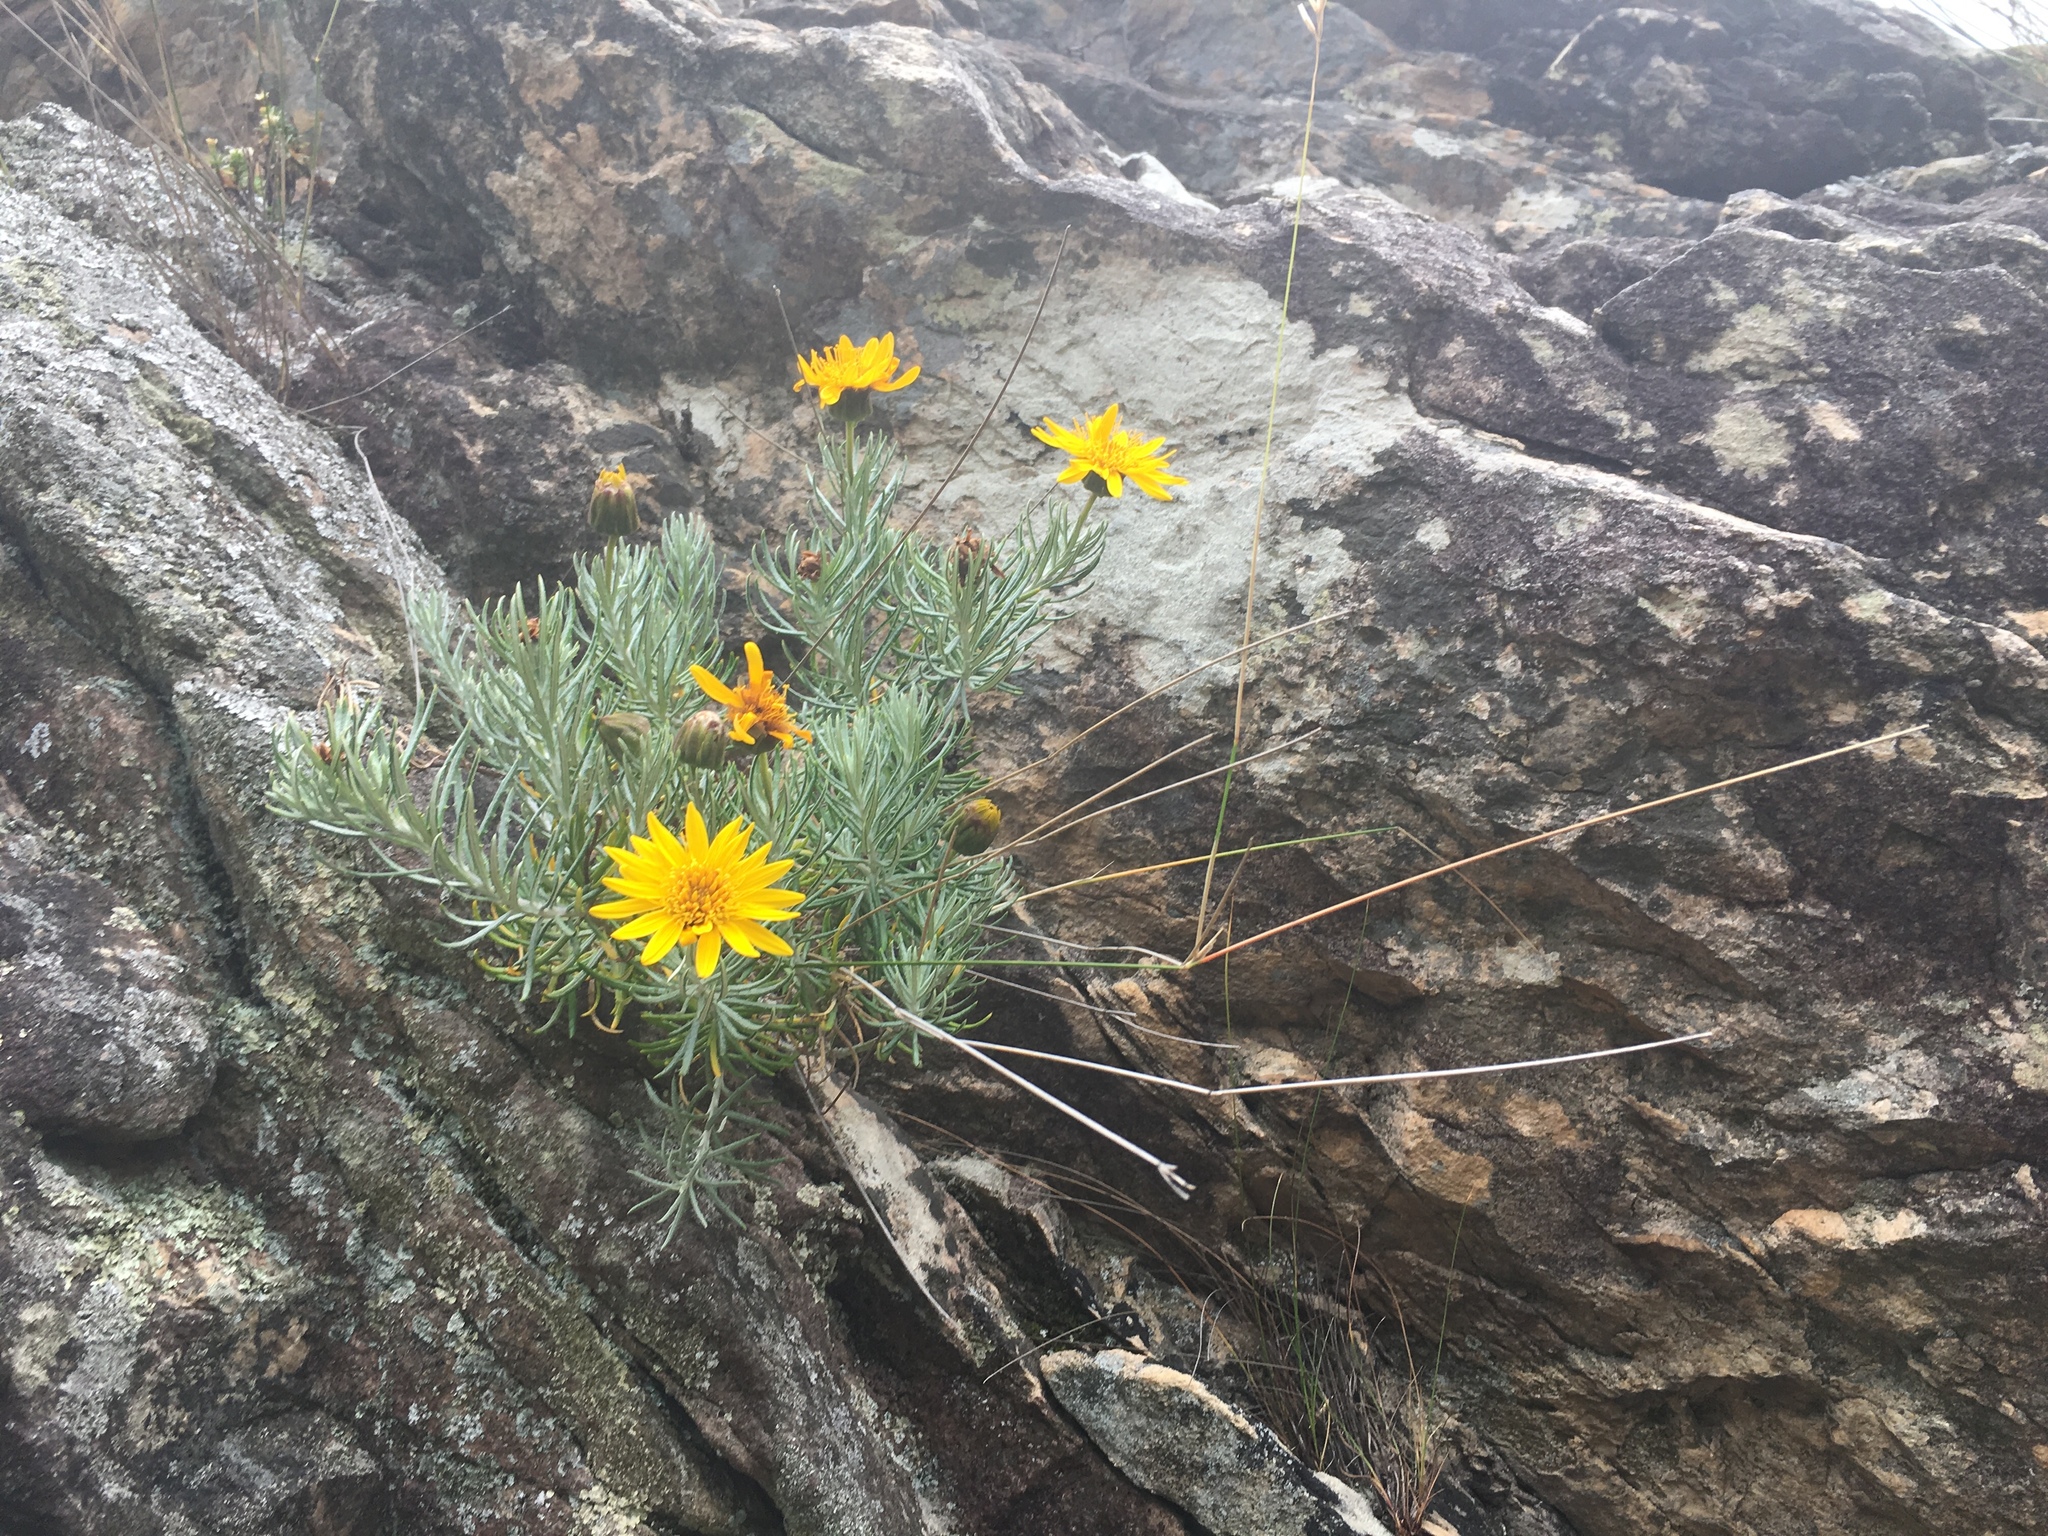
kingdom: Plantae
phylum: Tracheophyta
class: Magnoliopsida
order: Asterales
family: Asteraceae
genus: Heterolepis
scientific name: Heterolepis aliena
